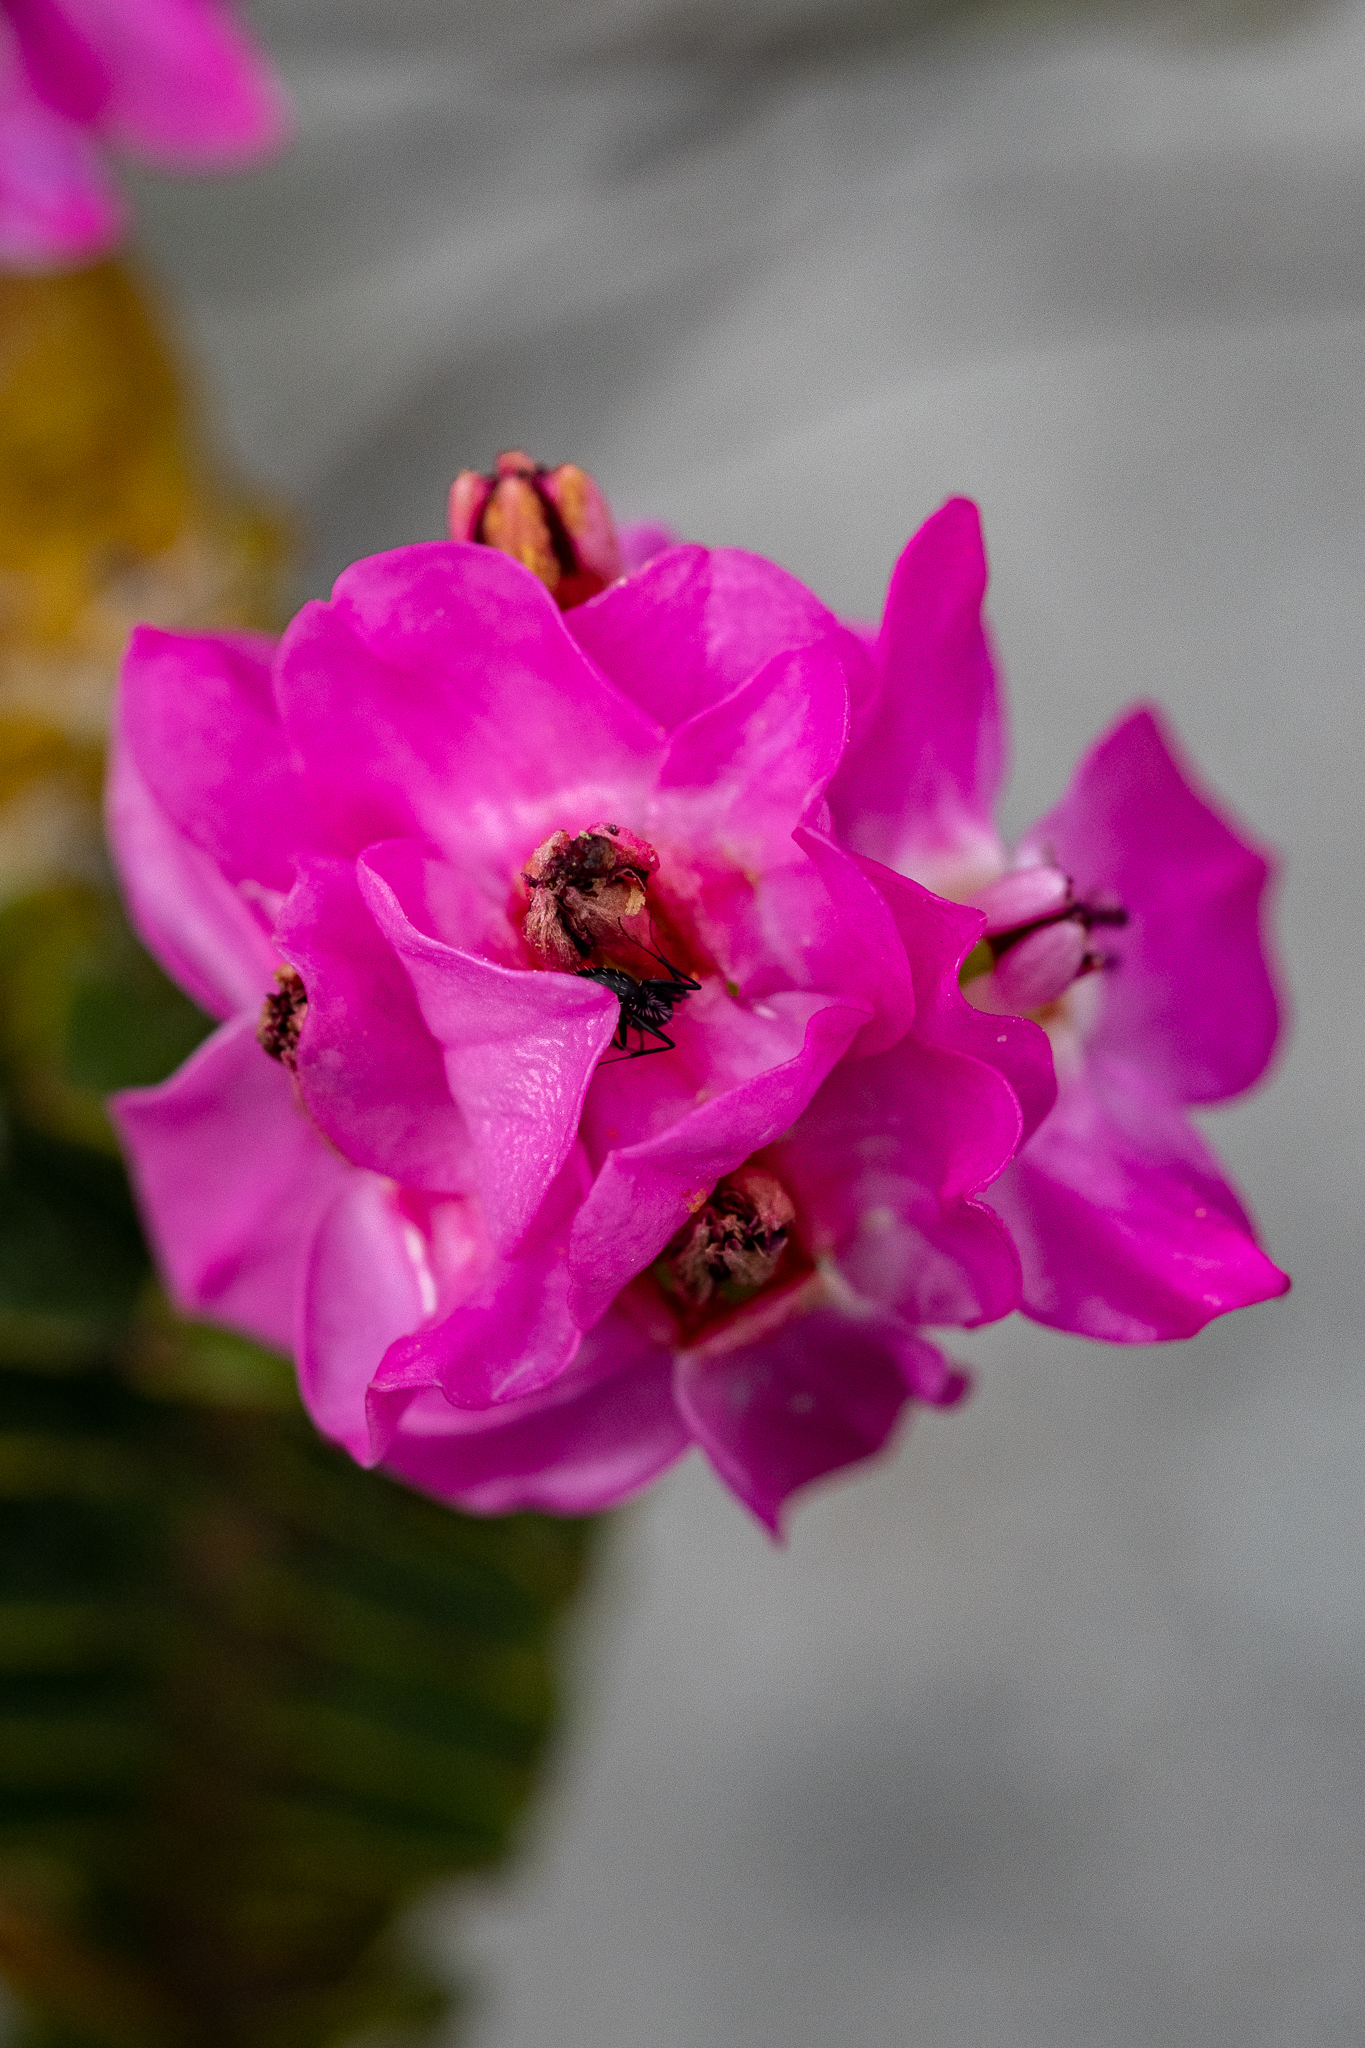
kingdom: Plantae
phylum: Tracheophyta
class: Magnoliopsida
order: Myrtales
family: Penaeaceae
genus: Saltera
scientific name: Saltera sarcocolla
